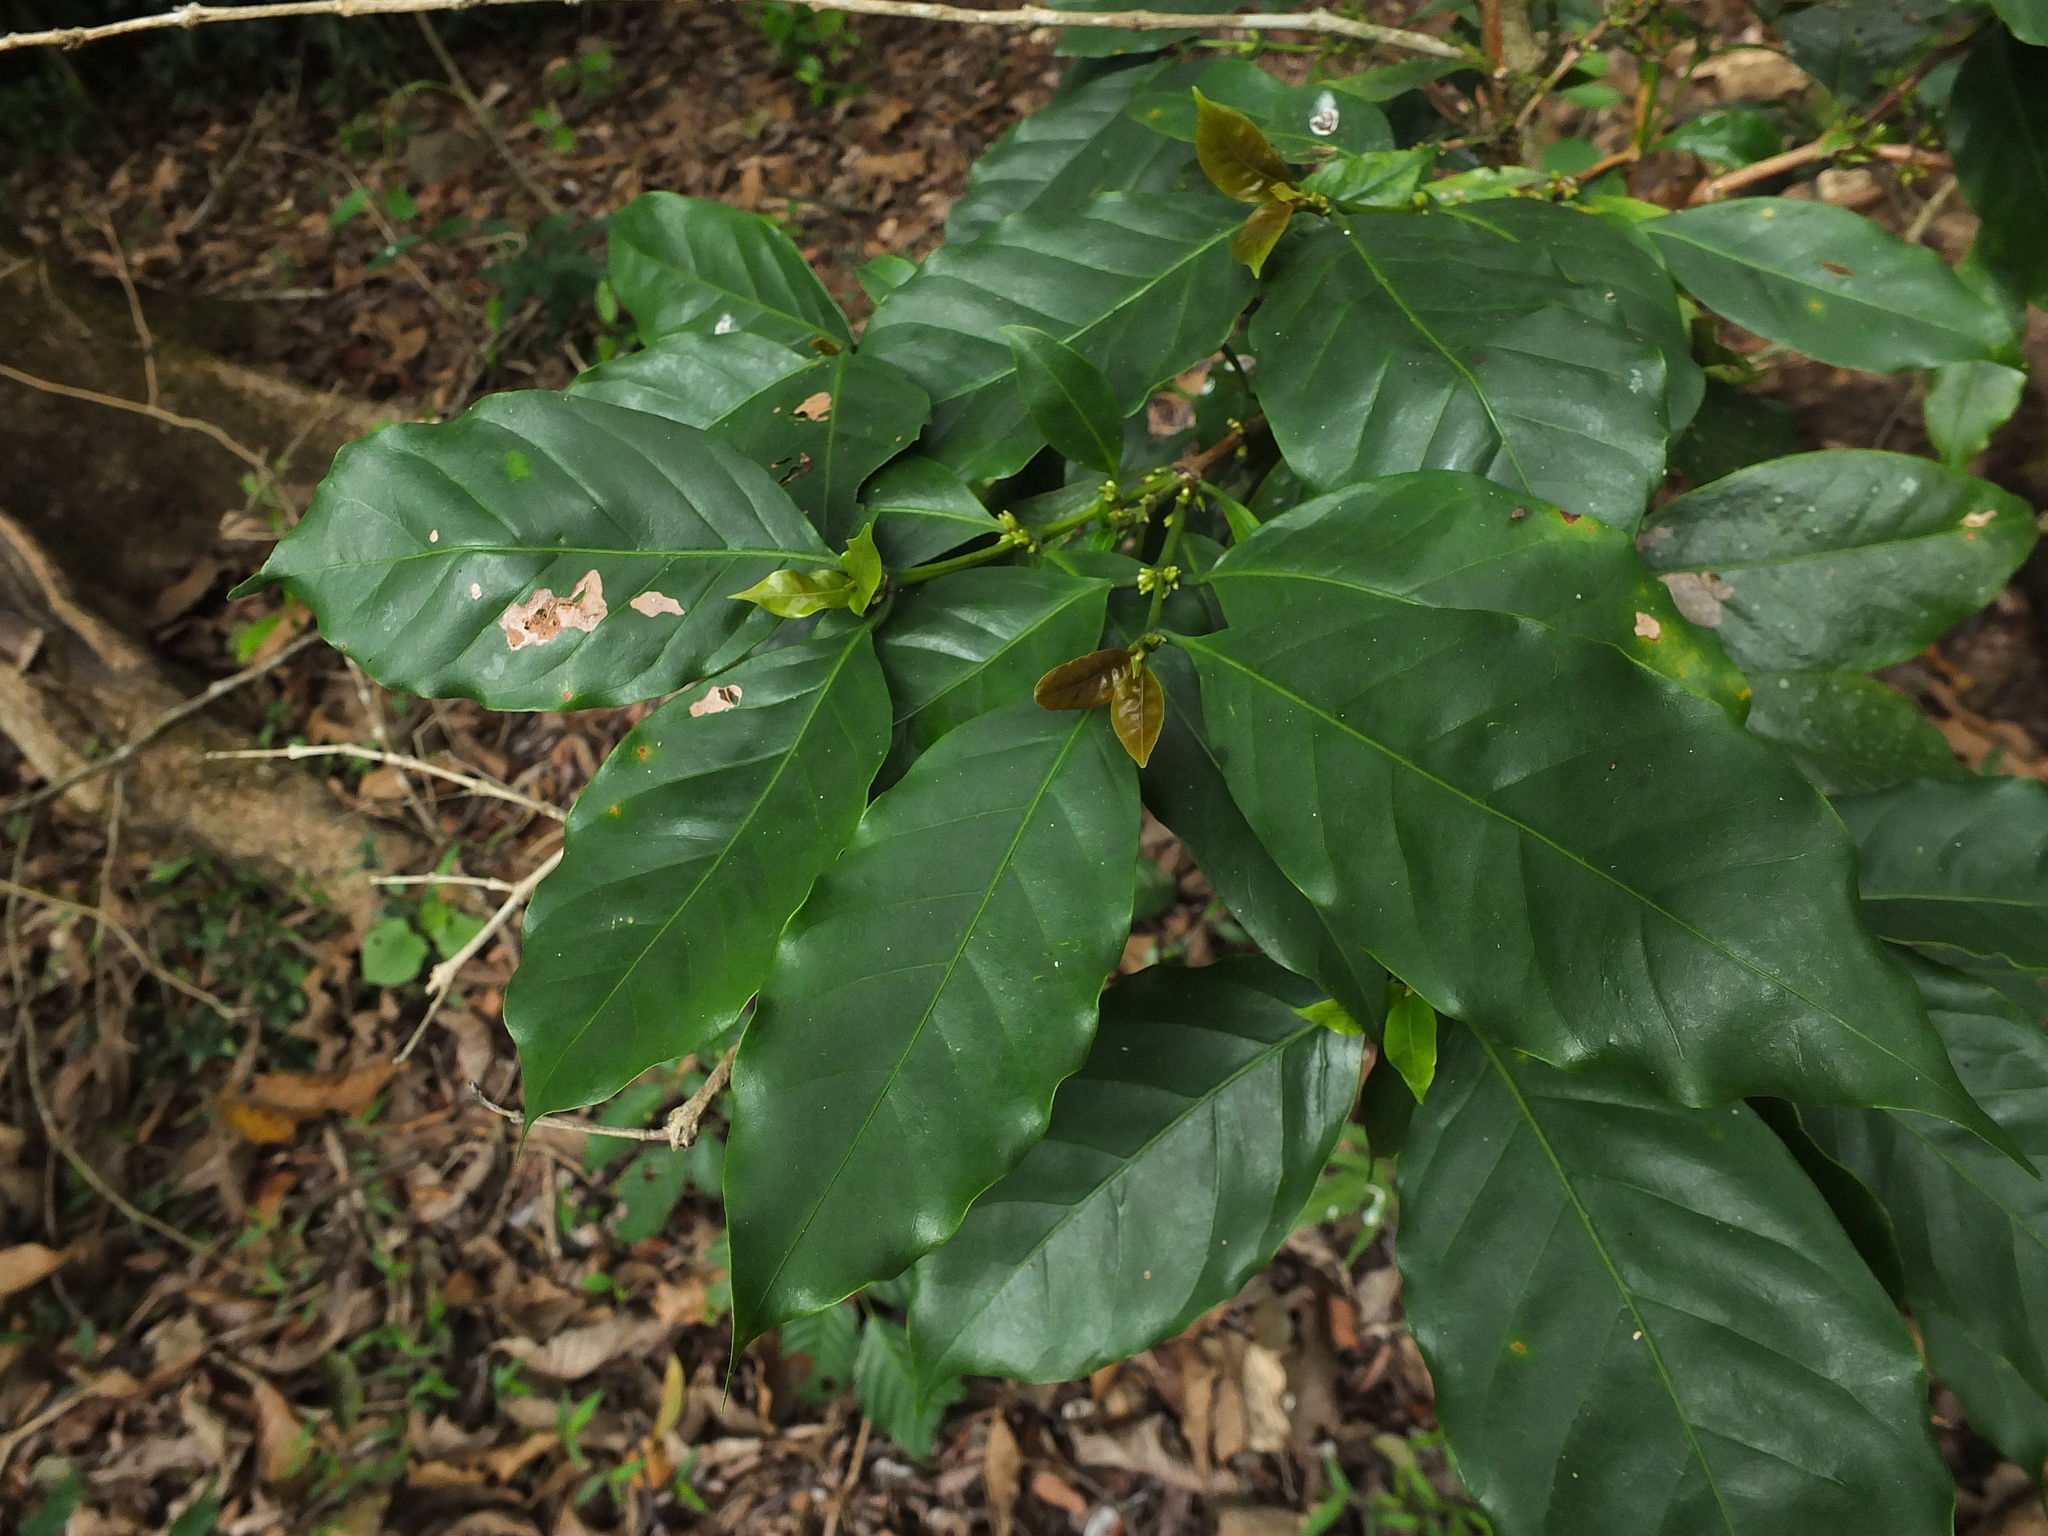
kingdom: Plantae
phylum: Tracheophyta
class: Magnoliopsida
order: Gentianales
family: Rubiaceae
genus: Coffea
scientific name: Coffea arabica
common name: Coffee
